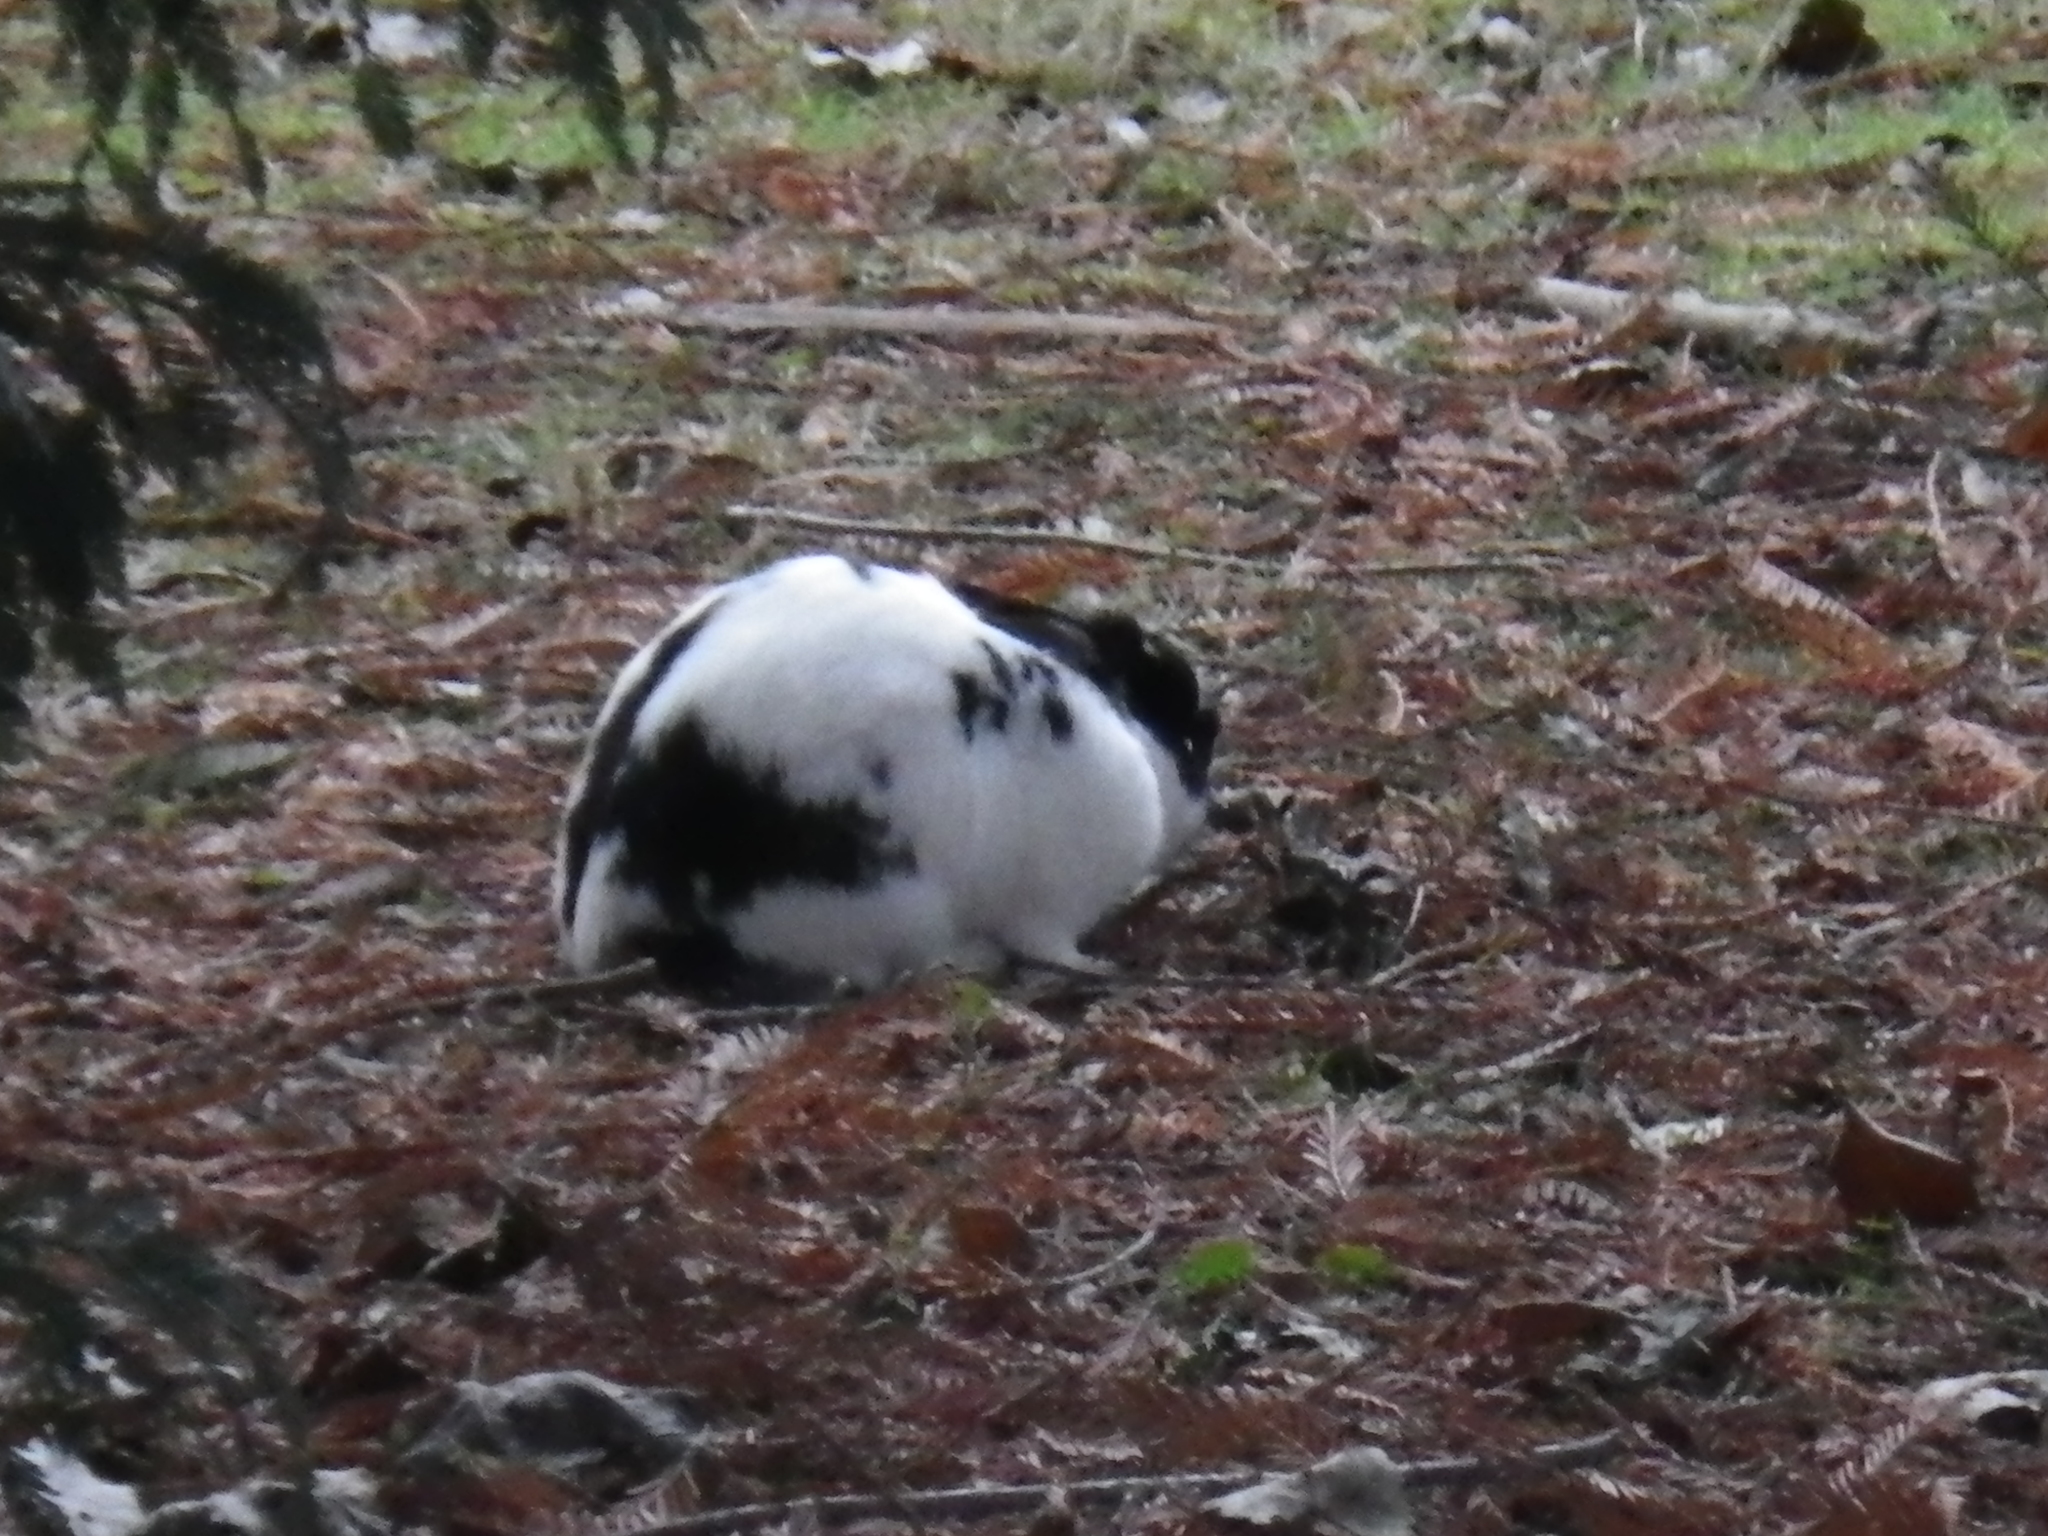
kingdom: Animalia
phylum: Chordata
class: Mammalia
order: Lagomorpha
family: Leporidae
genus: Oryctolagus
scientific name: Oryctolagus cuniculus
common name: European rabbit
